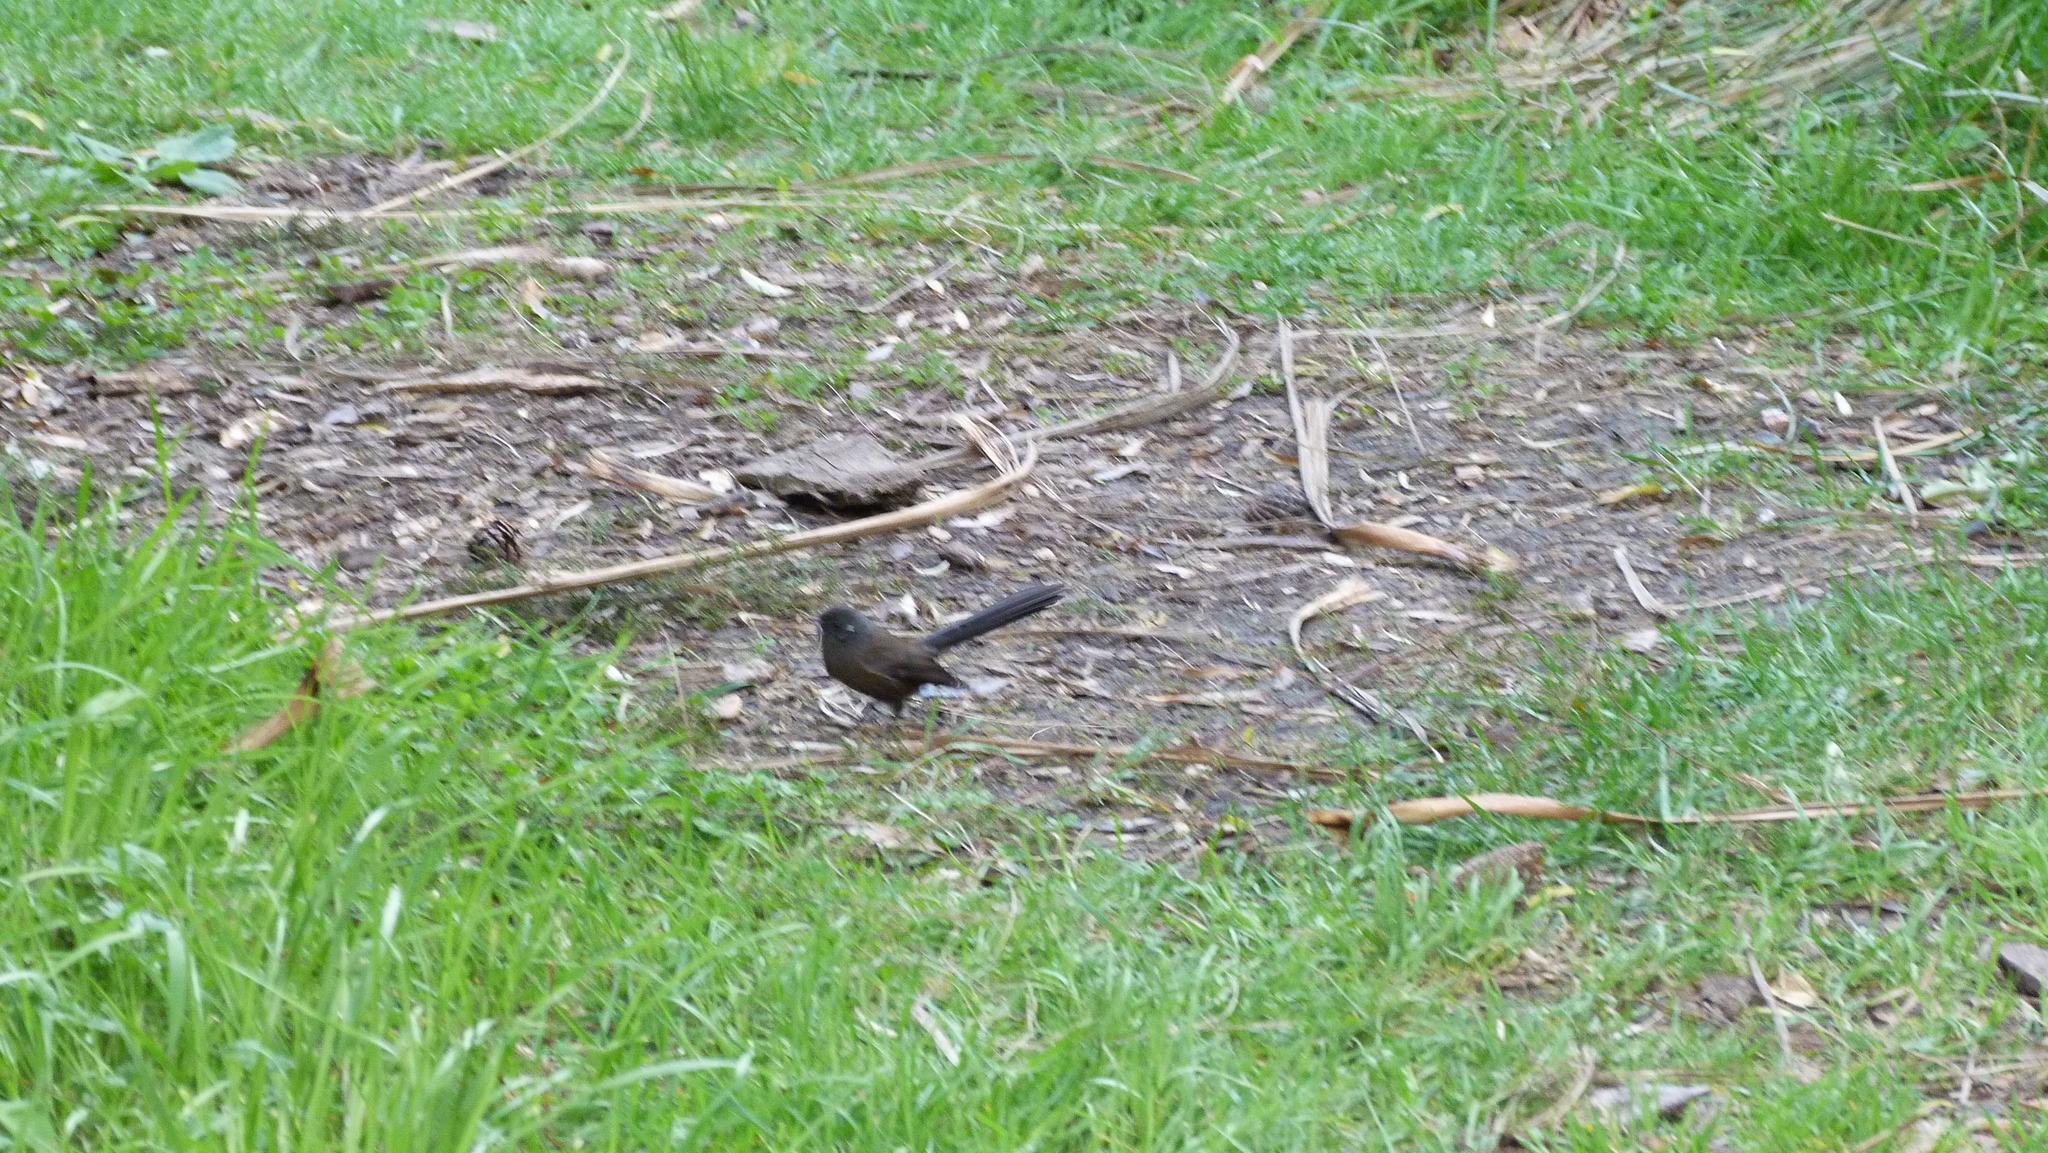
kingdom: Animalia
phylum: Chordata
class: Aves
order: Passeriformes
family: Rhipiduridae
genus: Rhipidura
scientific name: Rhipidura fuliginosa
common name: New zealand fantail
